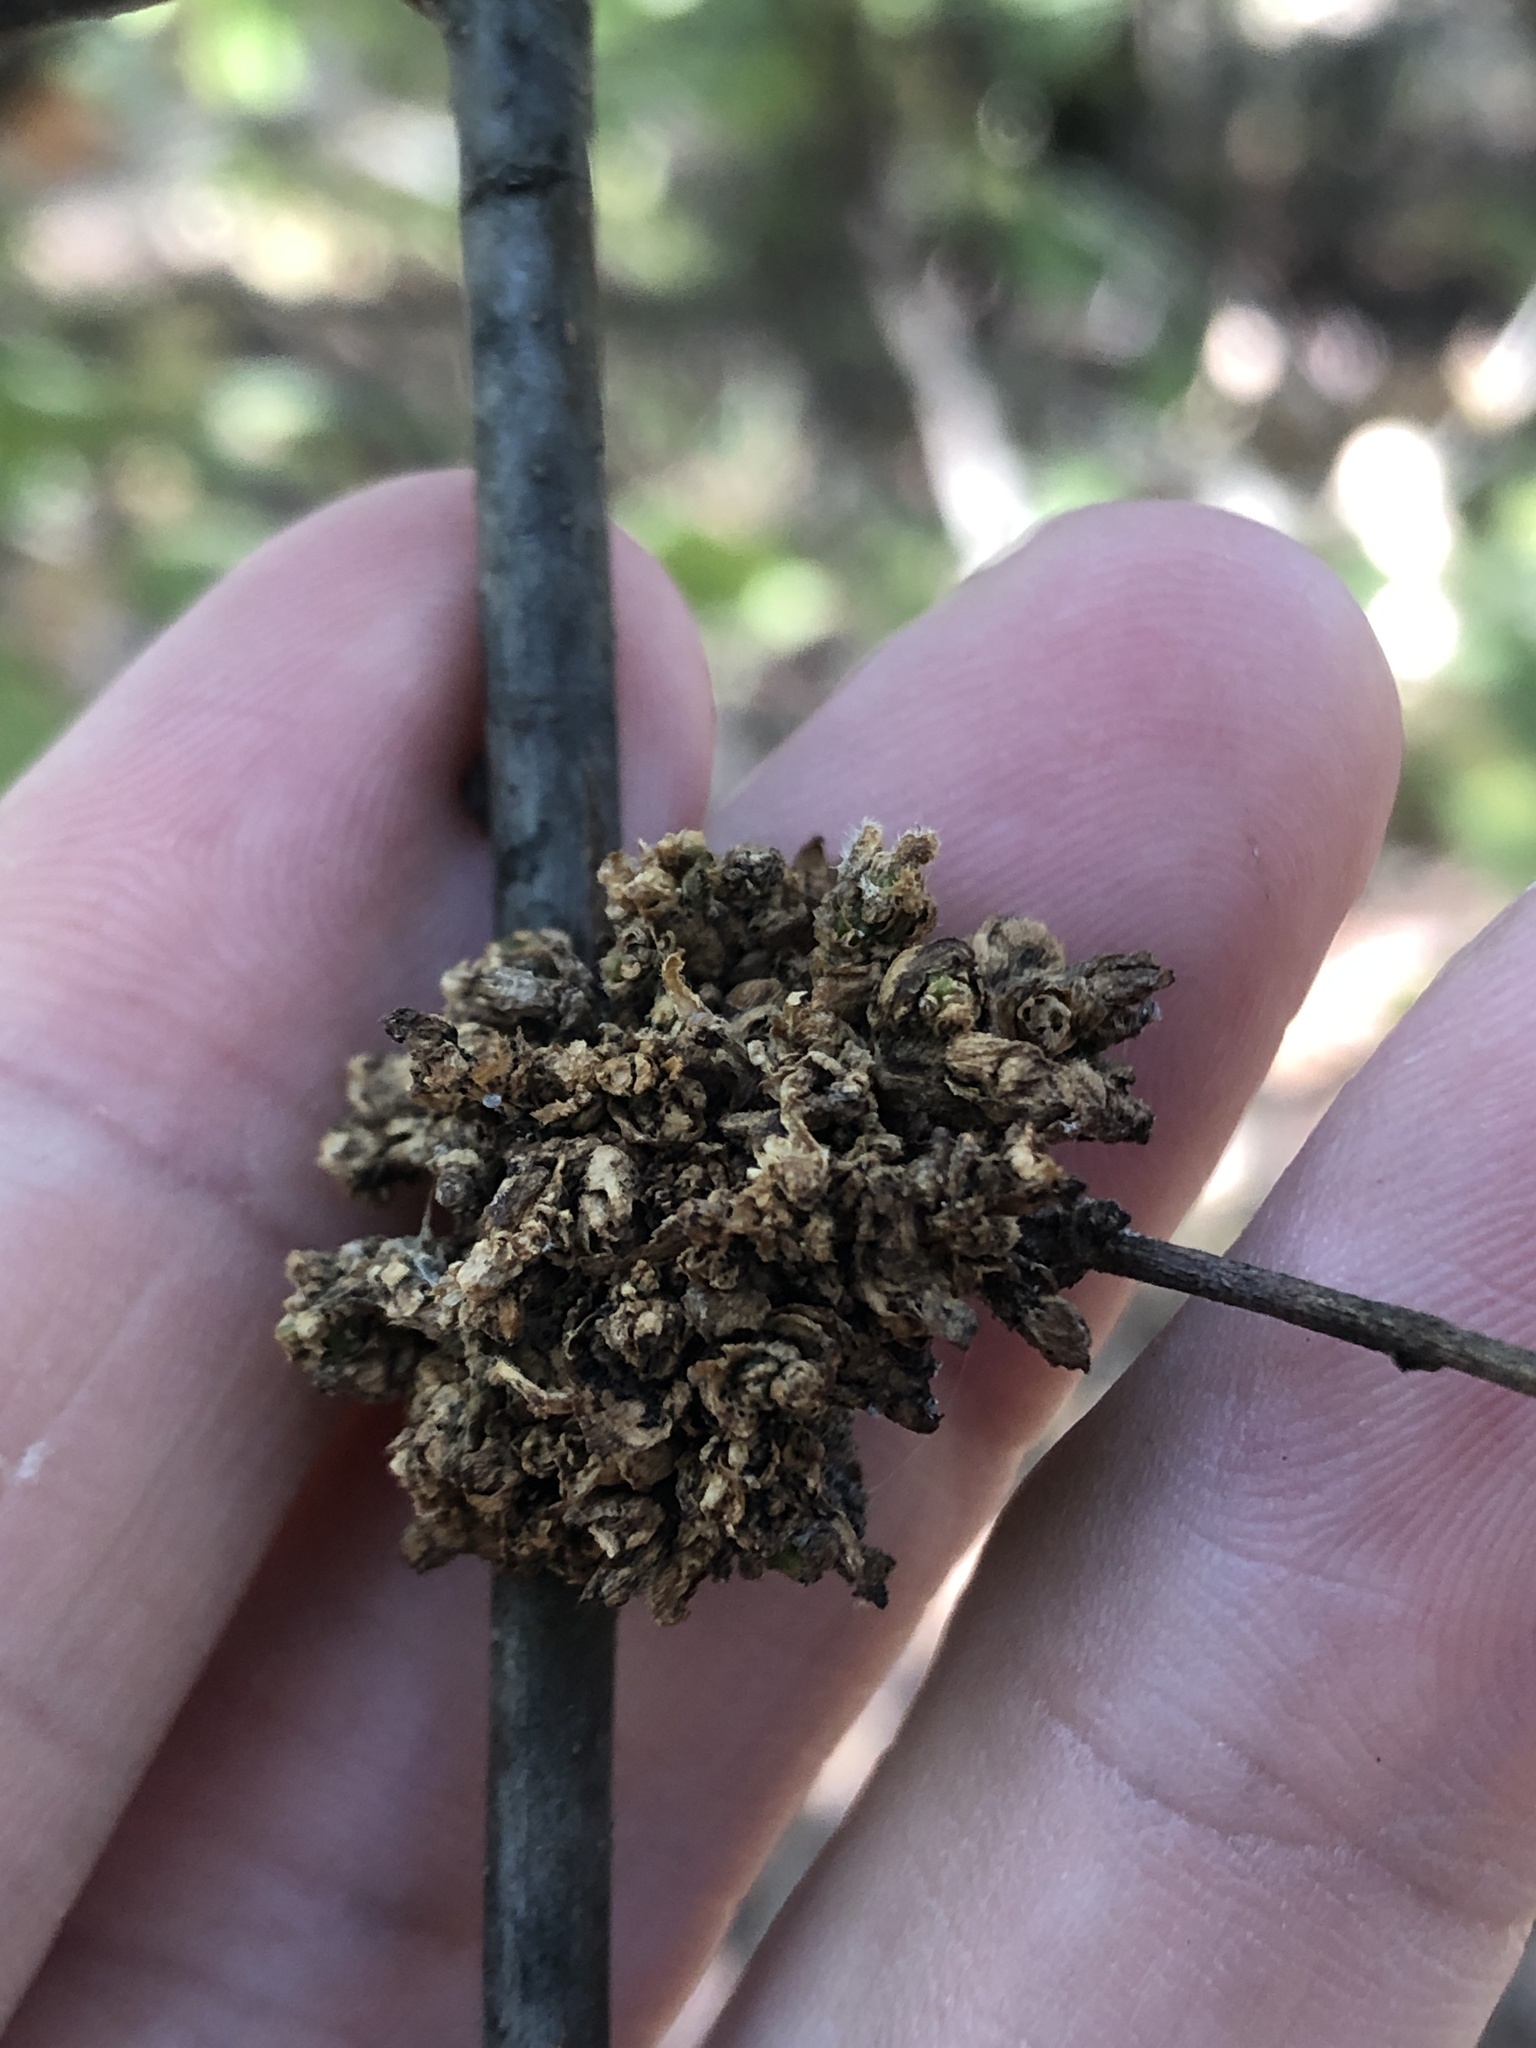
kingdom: Animalia
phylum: Arthropoda
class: Arachnida
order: Trombidiformes
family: Eriophyidae
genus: Aceria
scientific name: Aceria
